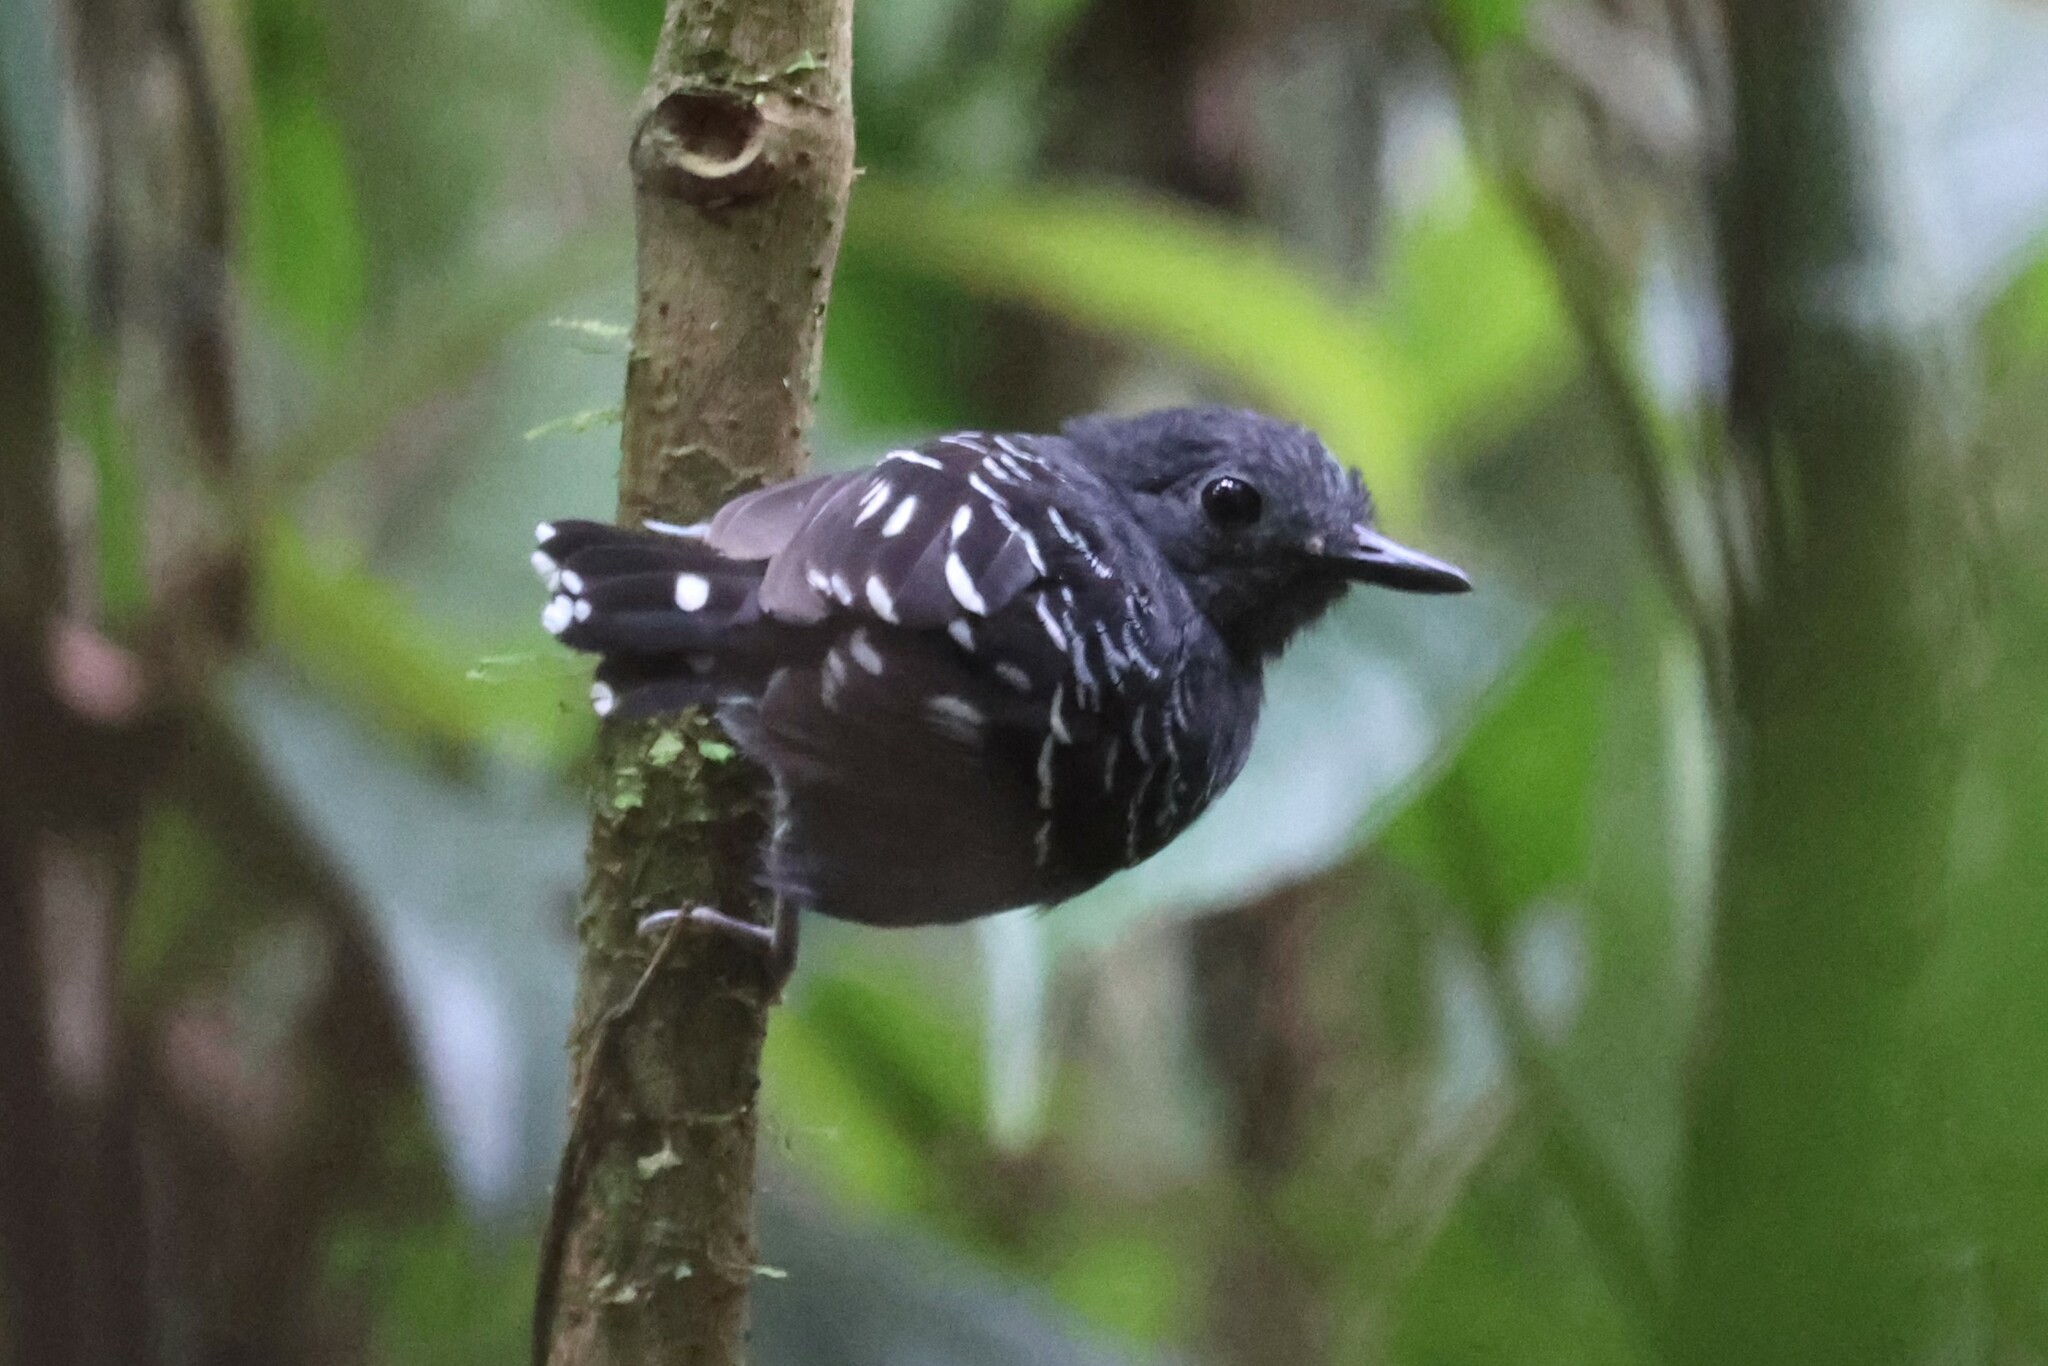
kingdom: Animalia
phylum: Chordata
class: Aves
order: Passeriformes
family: Thamnophilidae
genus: Willisornis
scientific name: Willisornis poecilinotus
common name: Common scale-backed antbird
